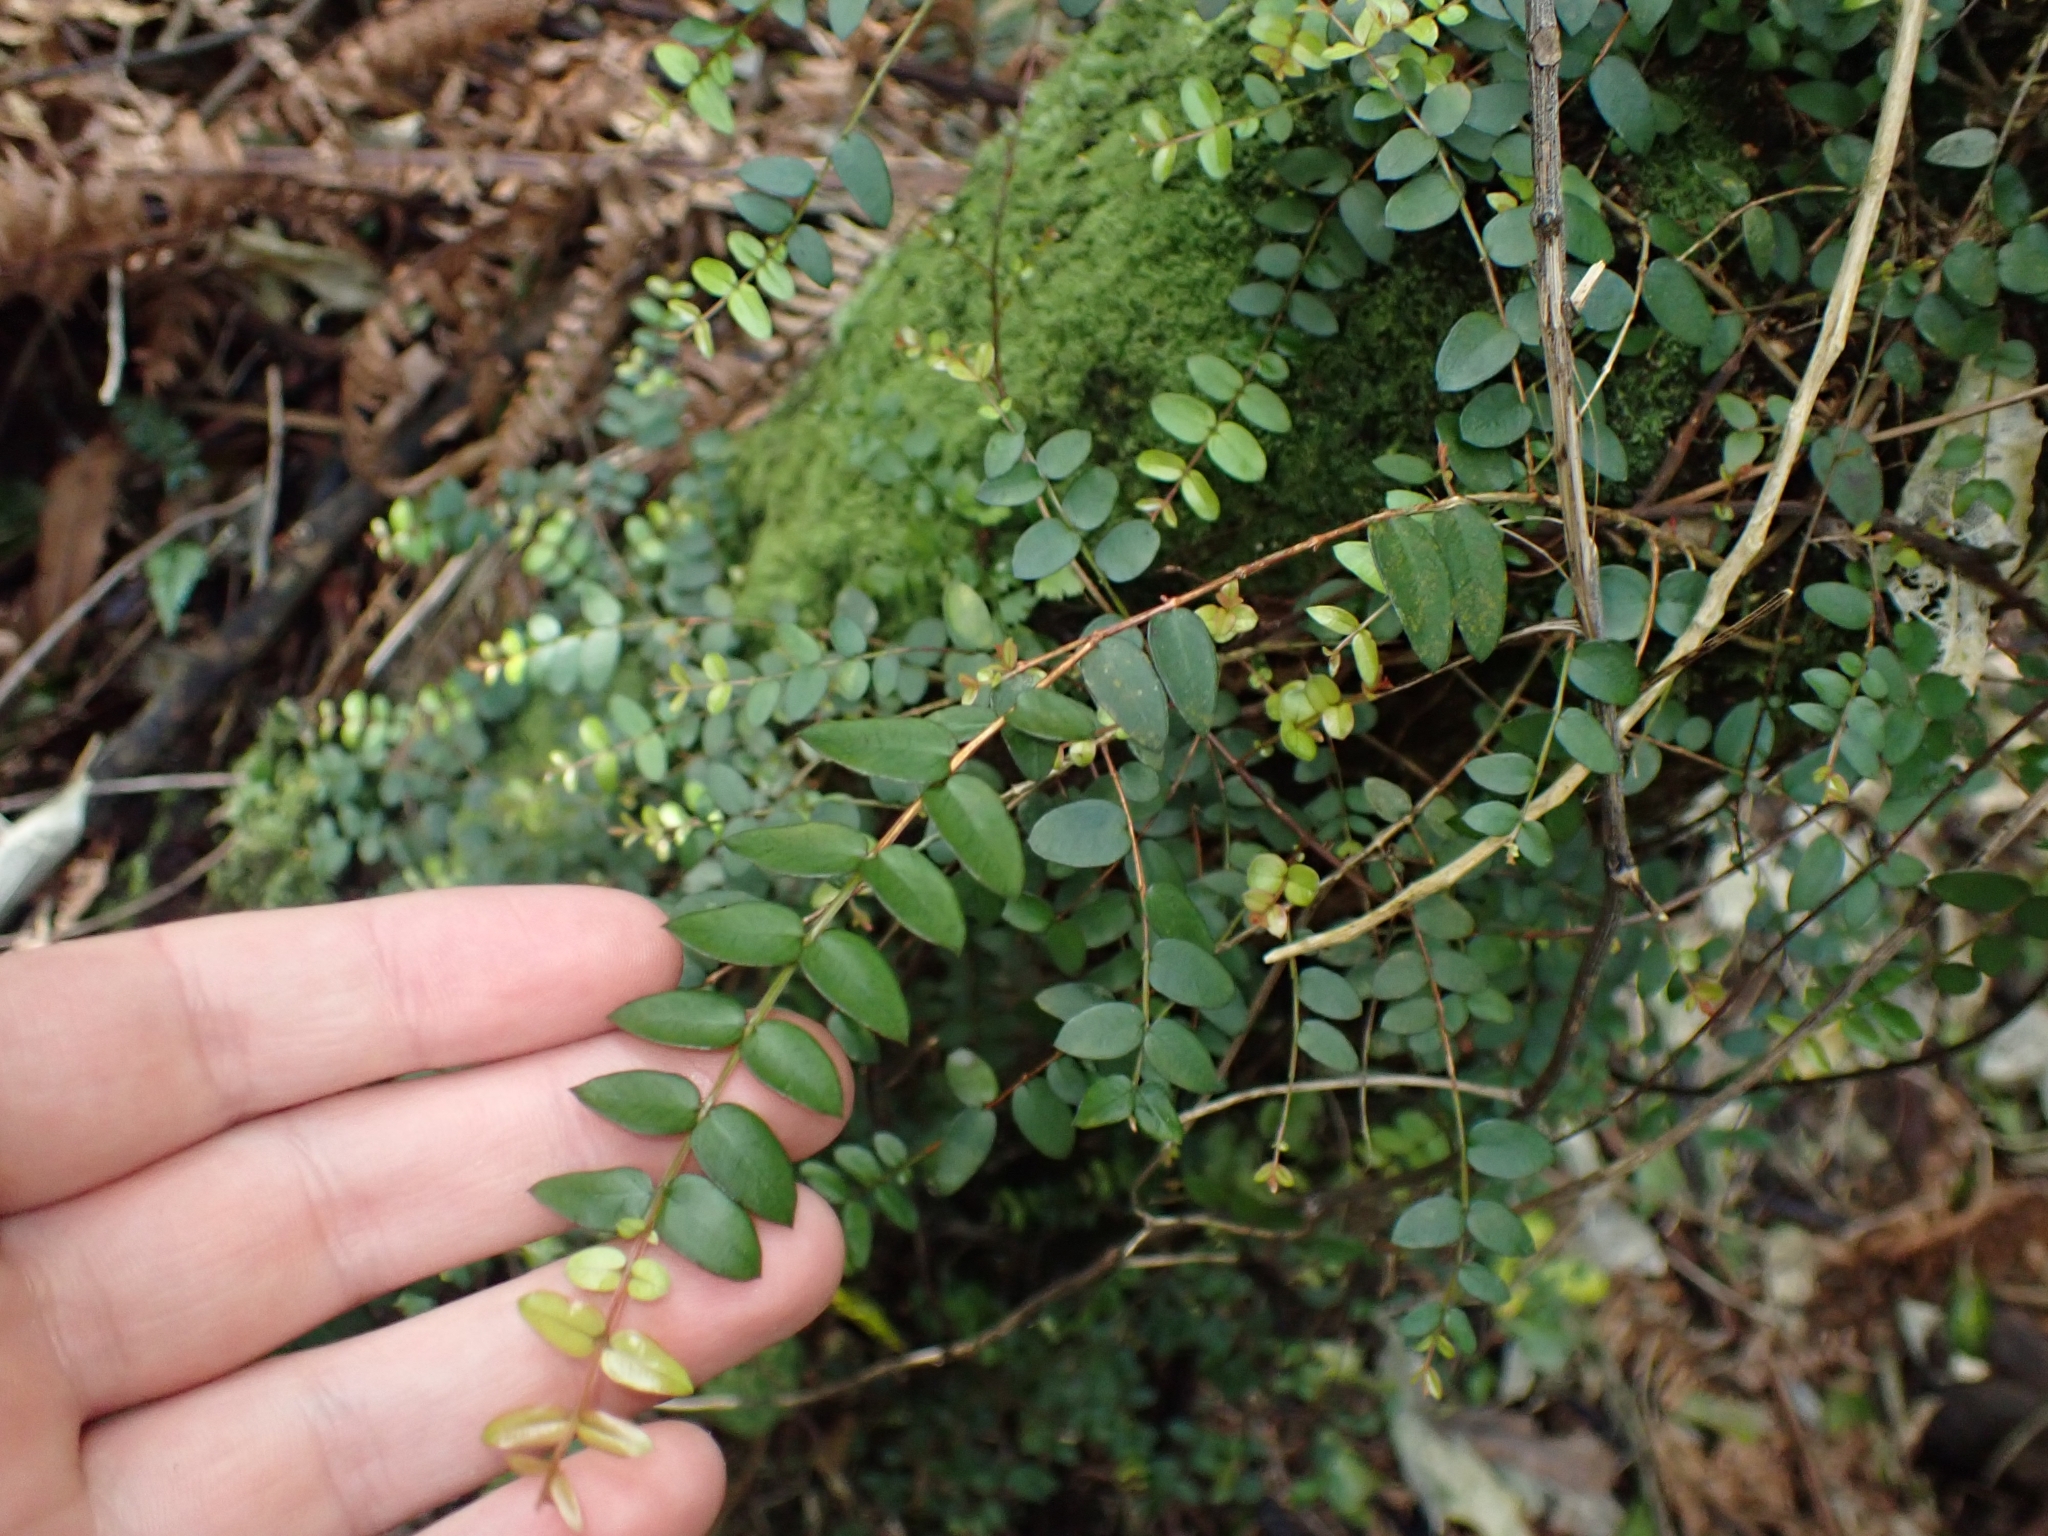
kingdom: Plantae
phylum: Tracheophyta
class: Magnoliopsida
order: Myrtales
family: Myrtaceae
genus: Metrosideros
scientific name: Metrosideros diffusa
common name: Small ratavine
